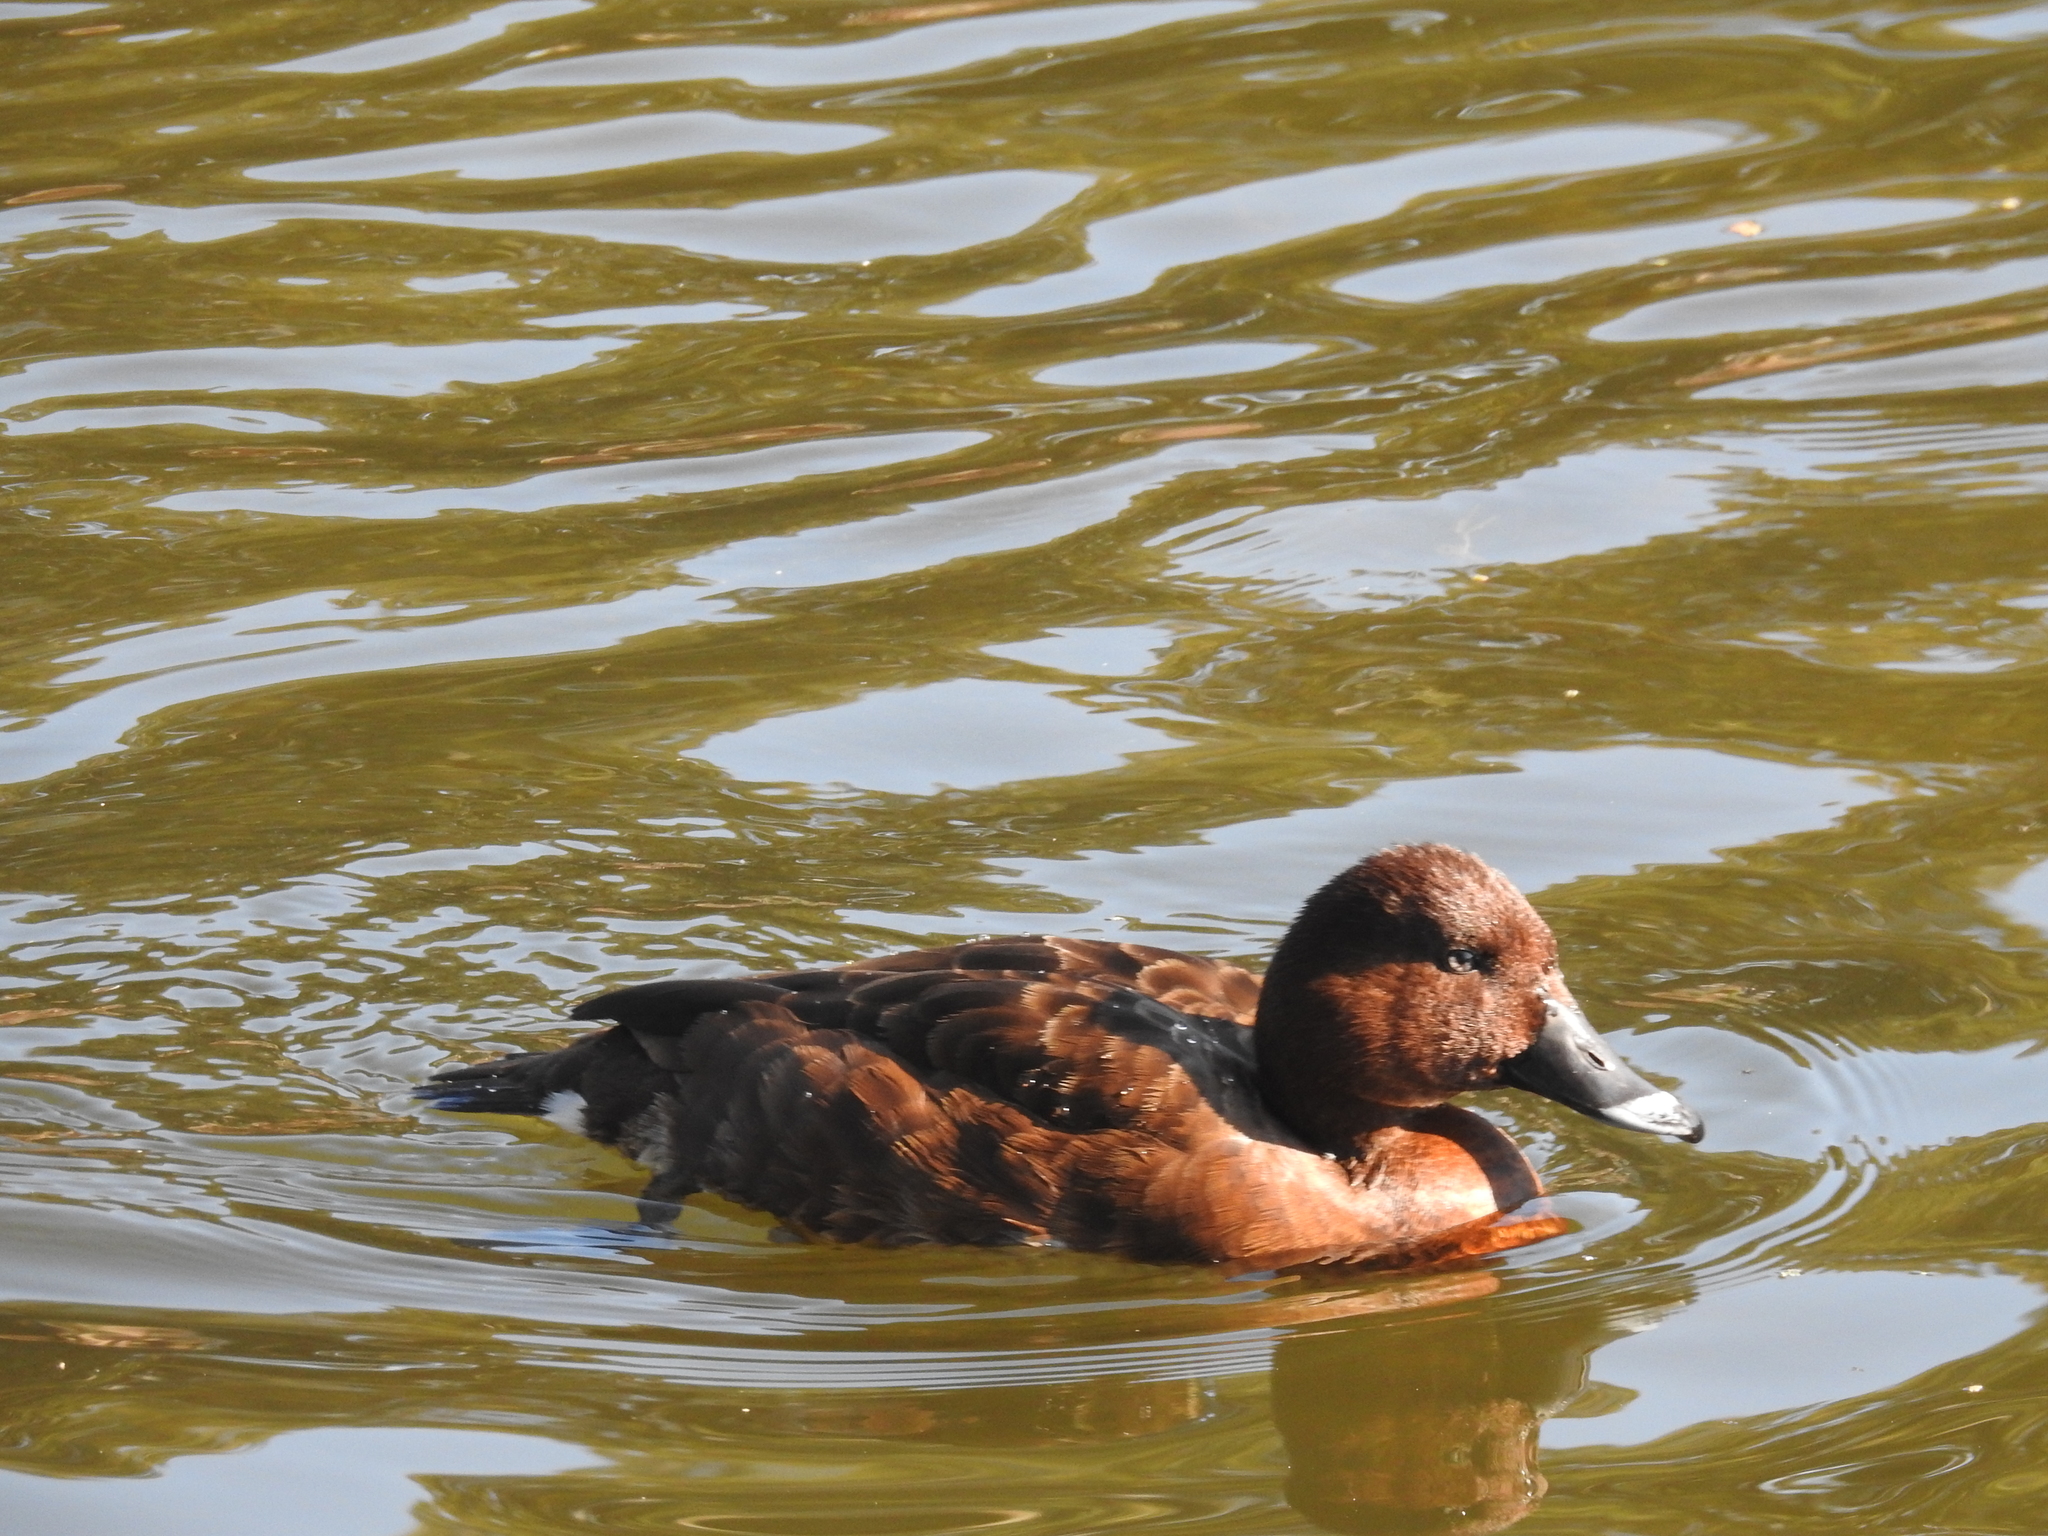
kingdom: Animalia
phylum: Chordata
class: Aves
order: Anseriformes
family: Anatidae
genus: Aythya
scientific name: Aythya australis
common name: Hardhead
